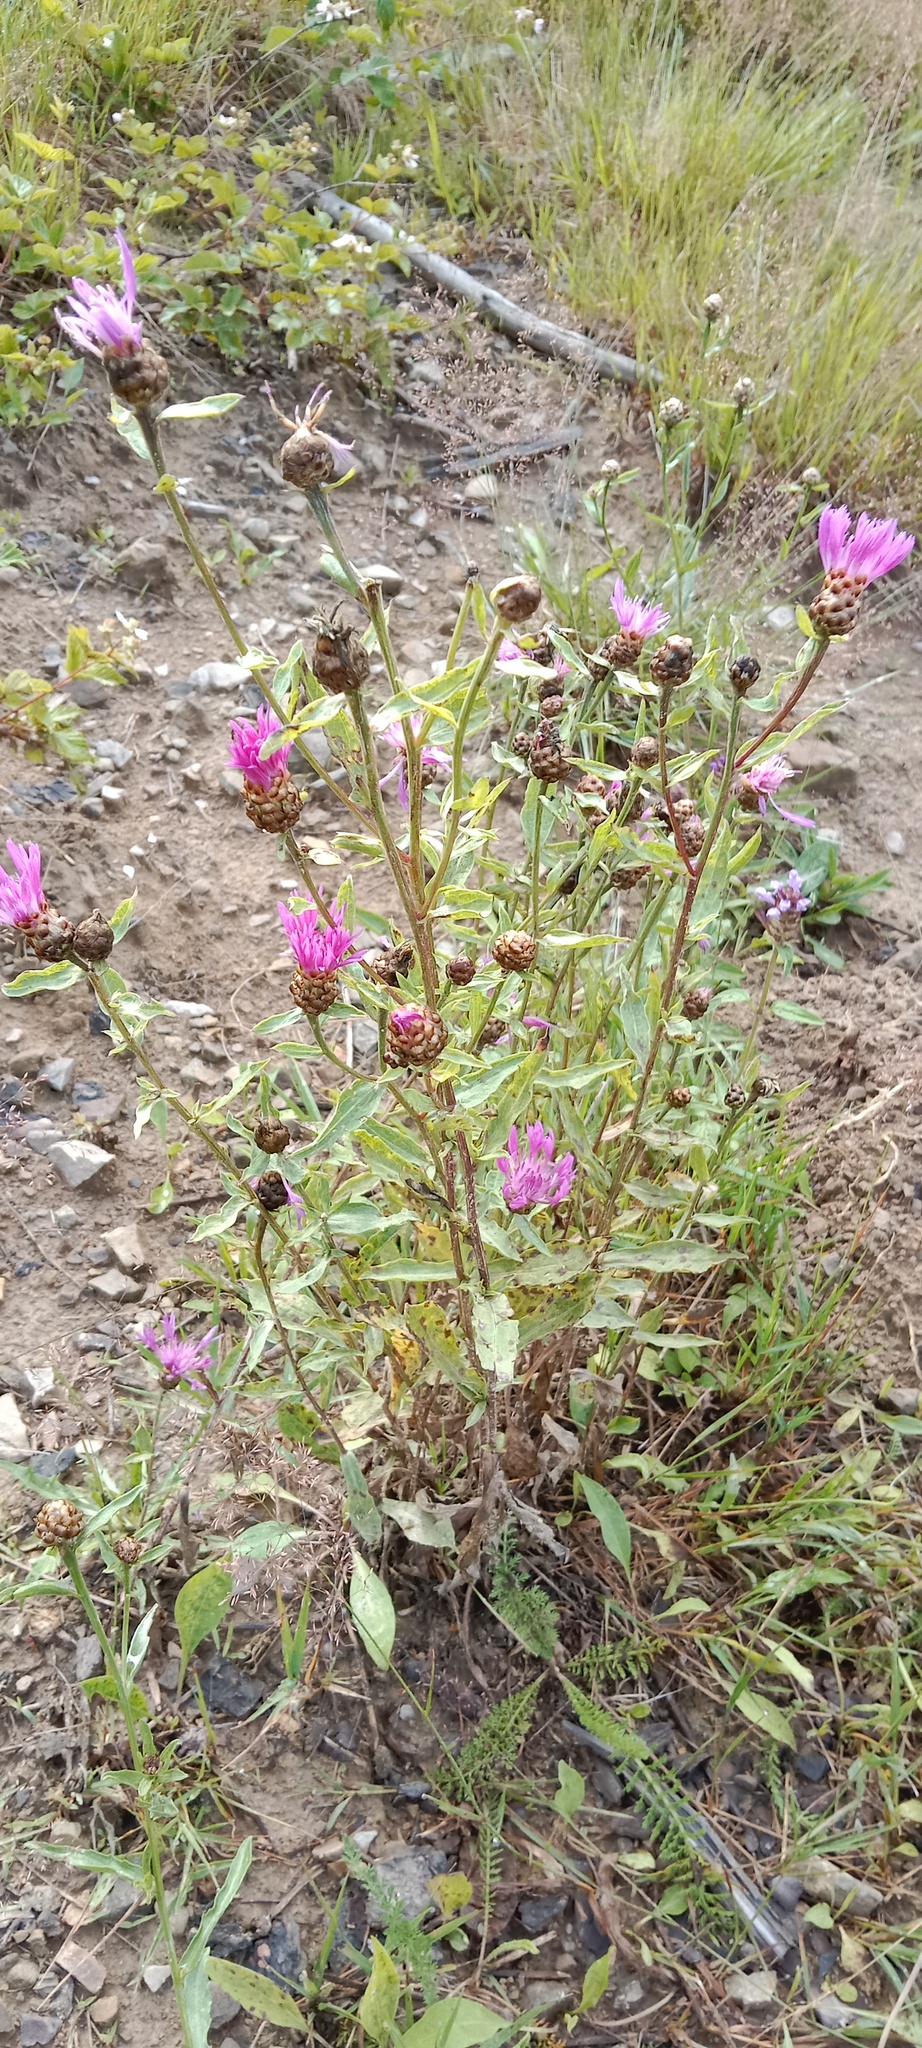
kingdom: Plantae
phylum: Tracheophyta
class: Magnoliopsida
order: Asterales
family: Asteraceae
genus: Centaurea
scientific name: Centaurea jacea
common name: Brown knapweed
